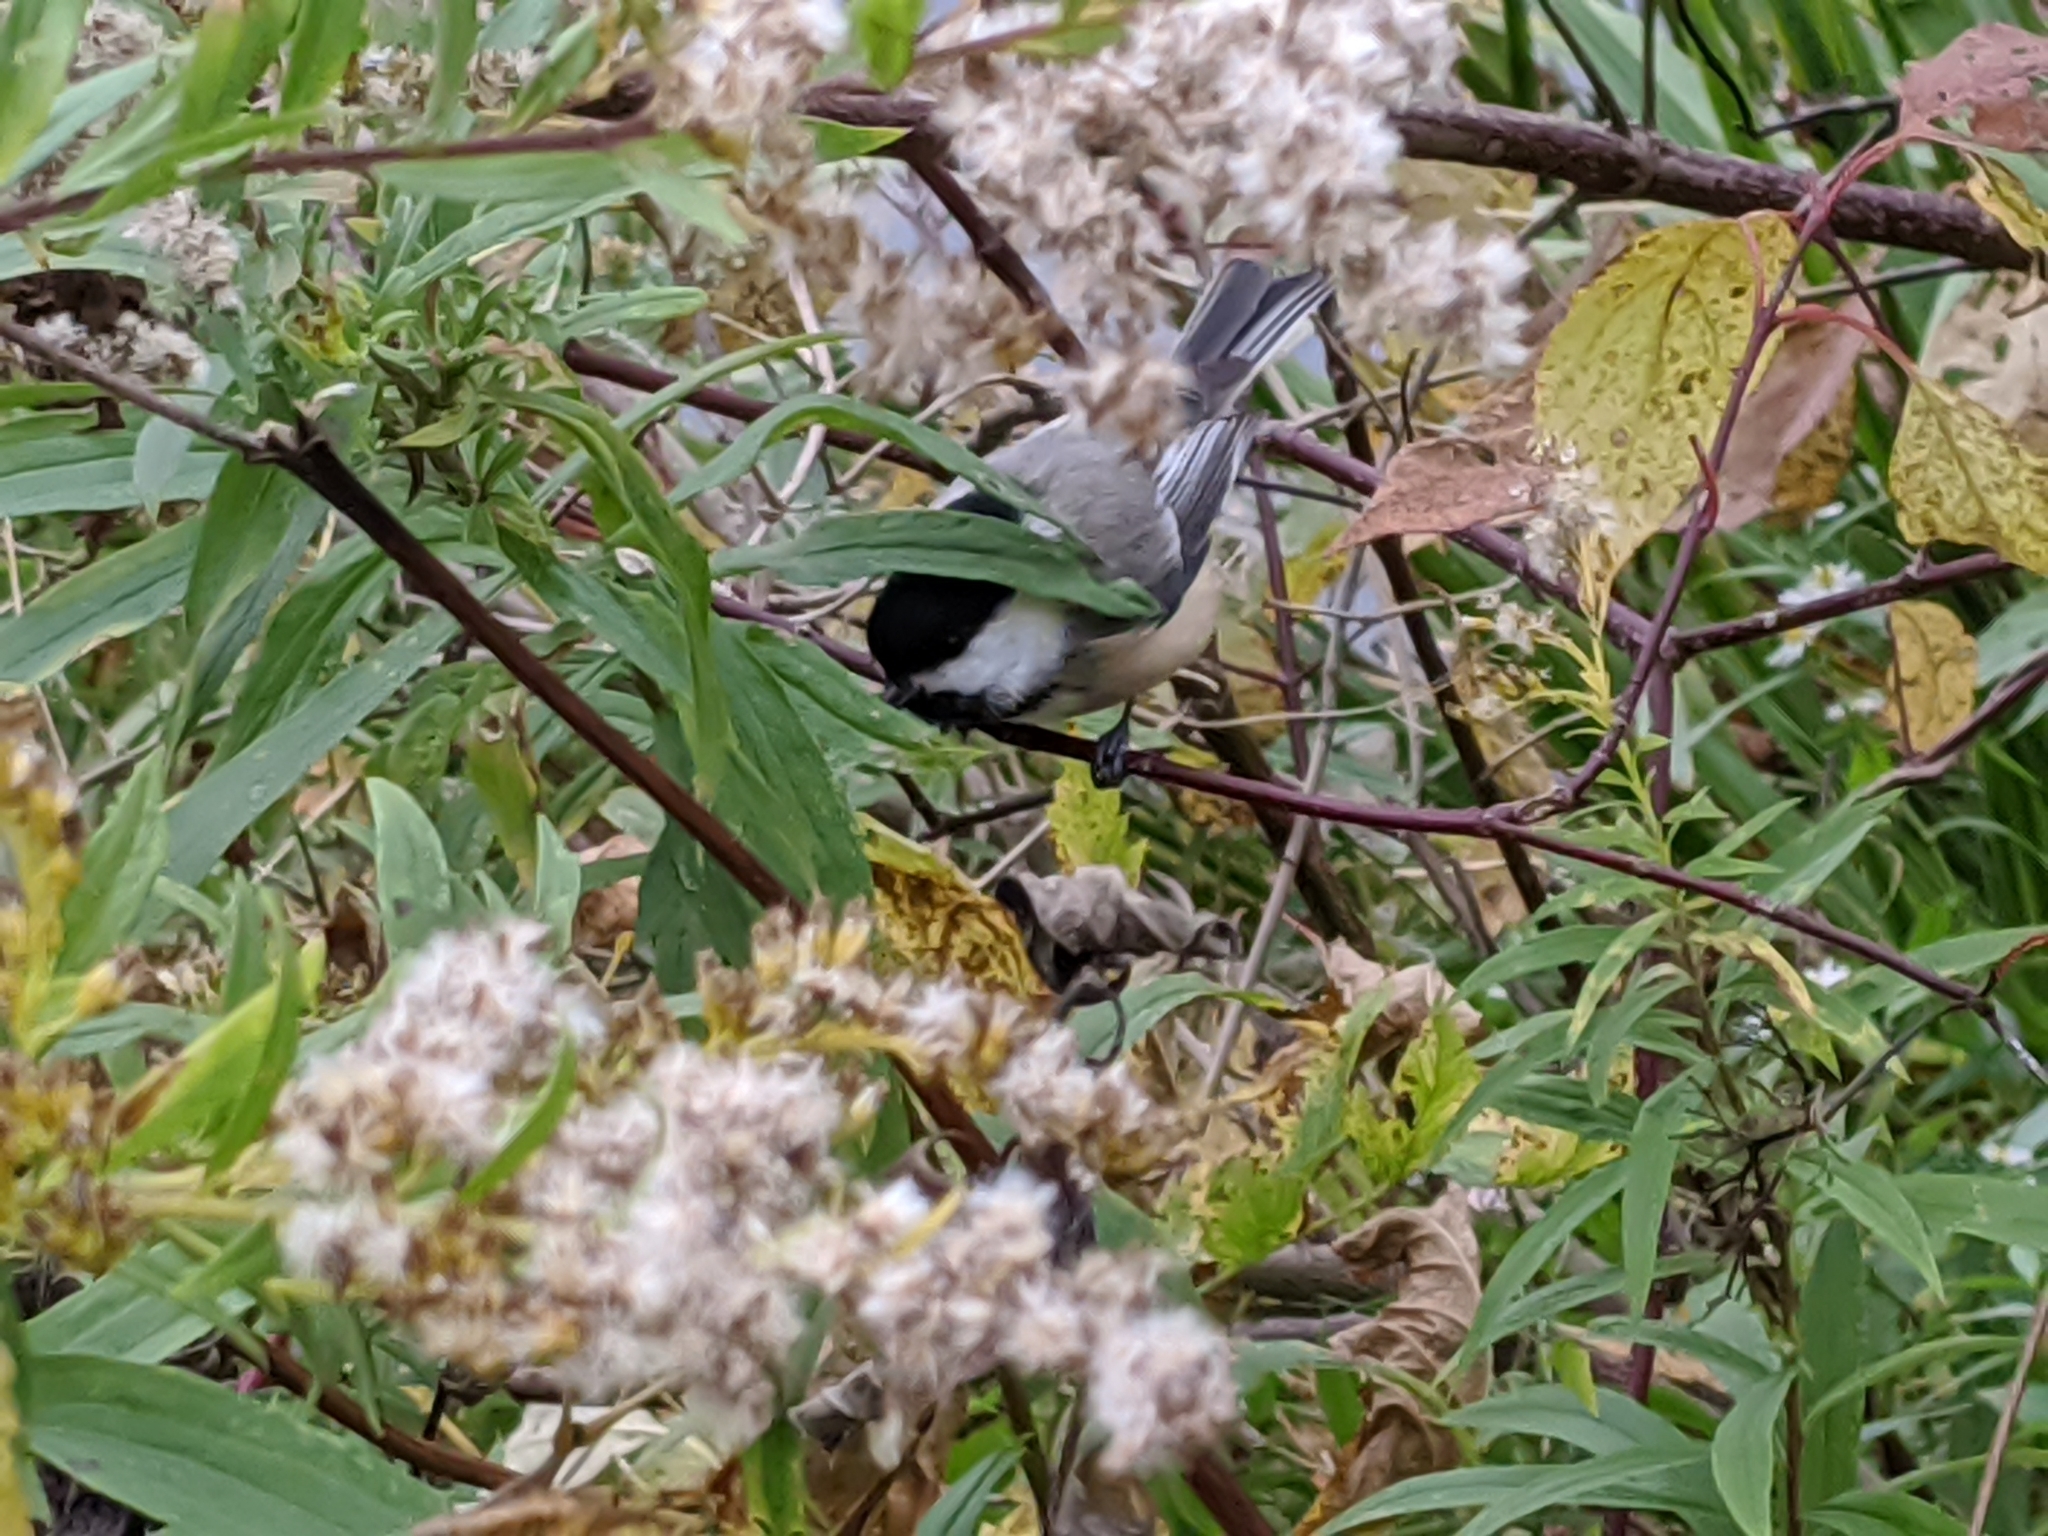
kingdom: Animalia
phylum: Chordata
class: Aves
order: Passeriformes
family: Paridae
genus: Poecile
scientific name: Poecile atricapillus
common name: Black-capped chickadee
